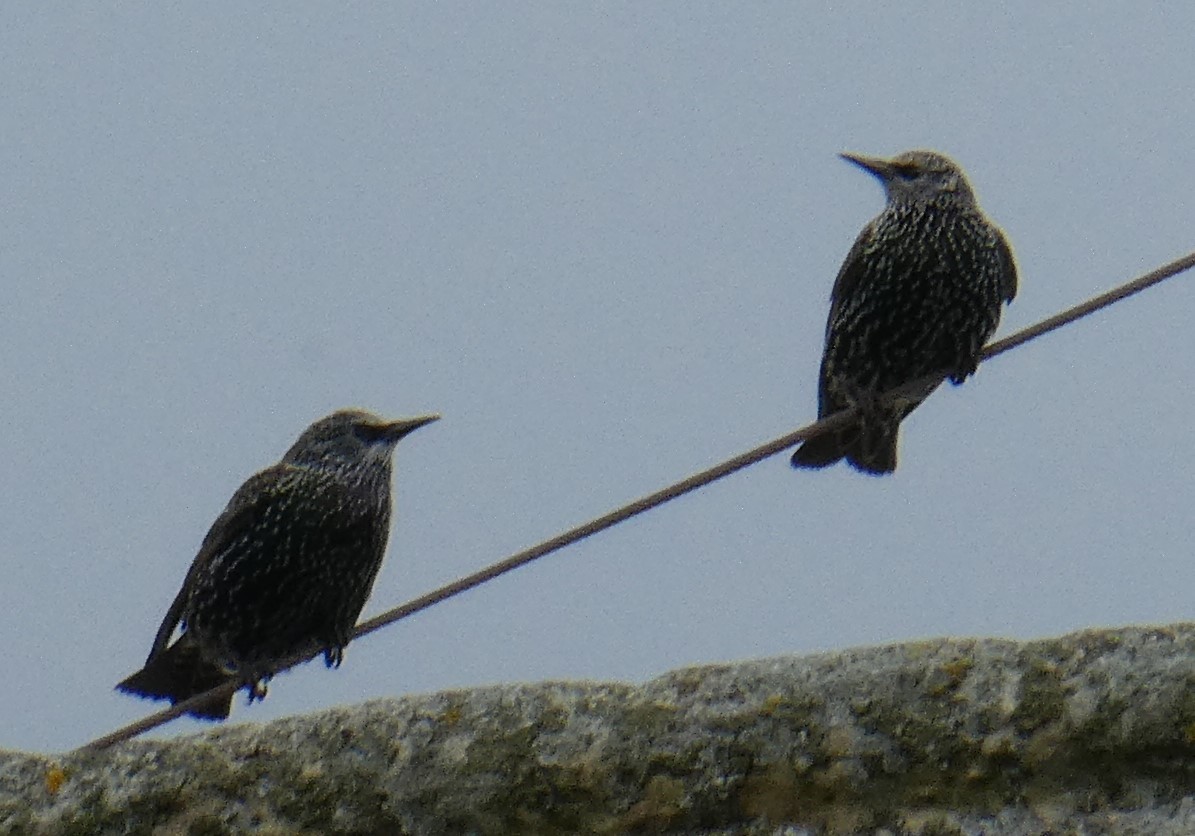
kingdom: Animalia
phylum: Chordata
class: Aves
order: Passeriformes
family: Sturnidae
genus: Sturnus
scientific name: Sturnus vulgaris
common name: Common starling
